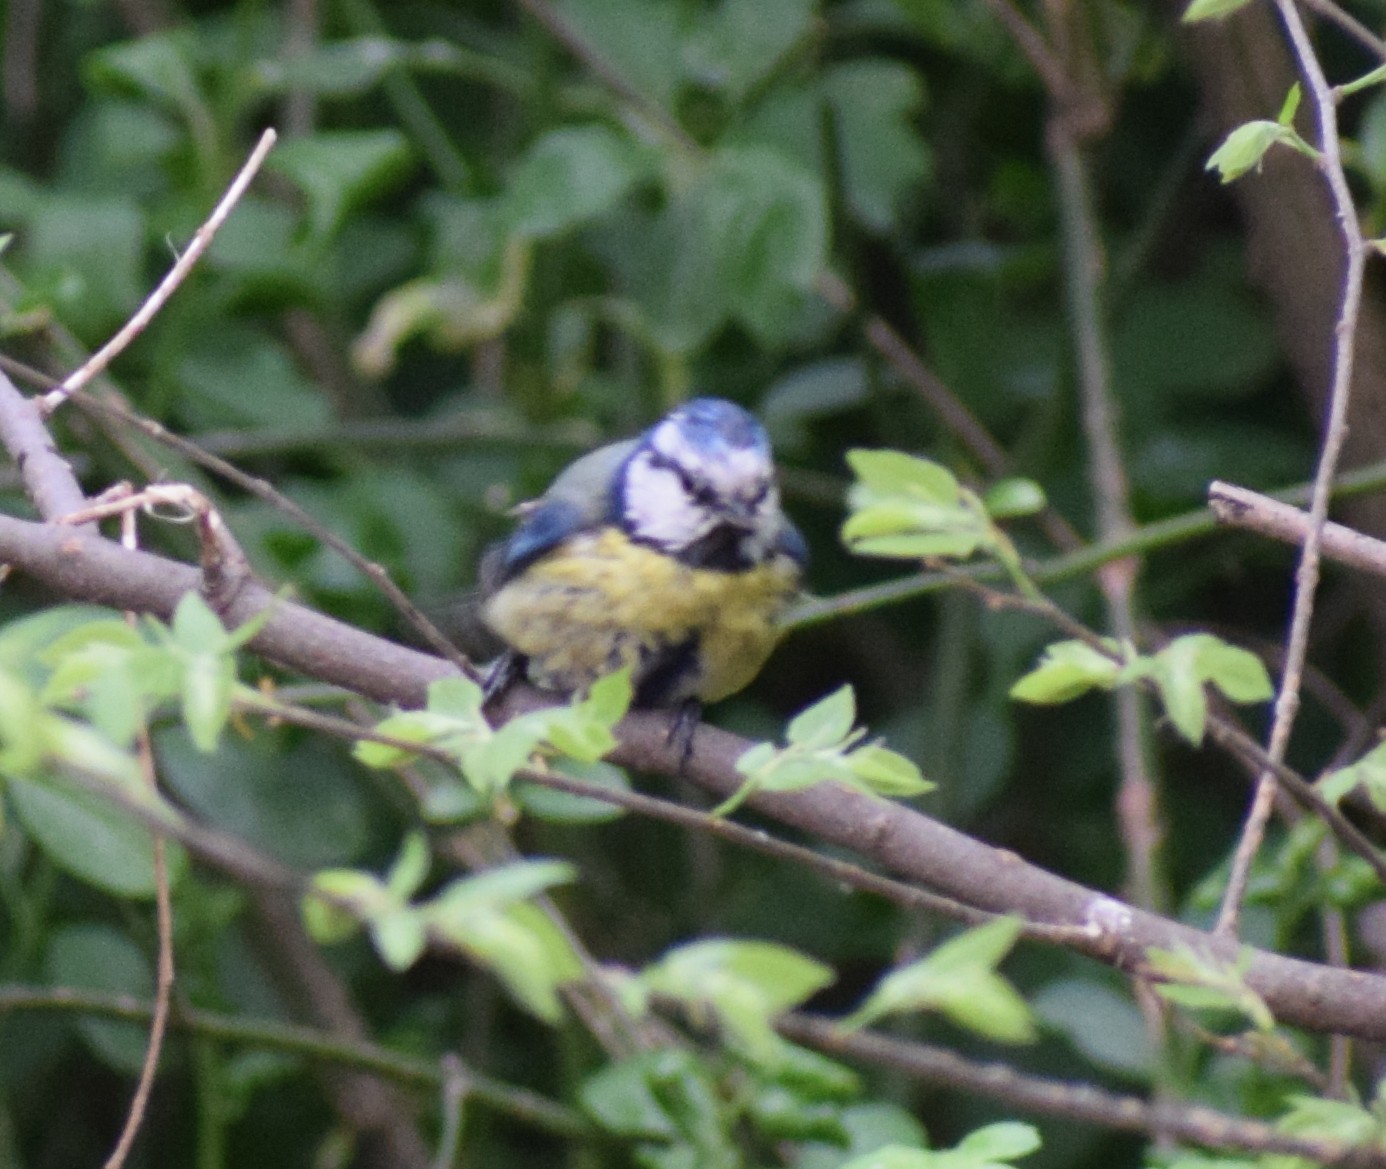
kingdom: Animalia
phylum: Chordata
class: Aves
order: Passeriformes
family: Paridae
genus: Cyanistes
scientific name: Cyanistes caeruleus
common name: Eurasian blue tit
